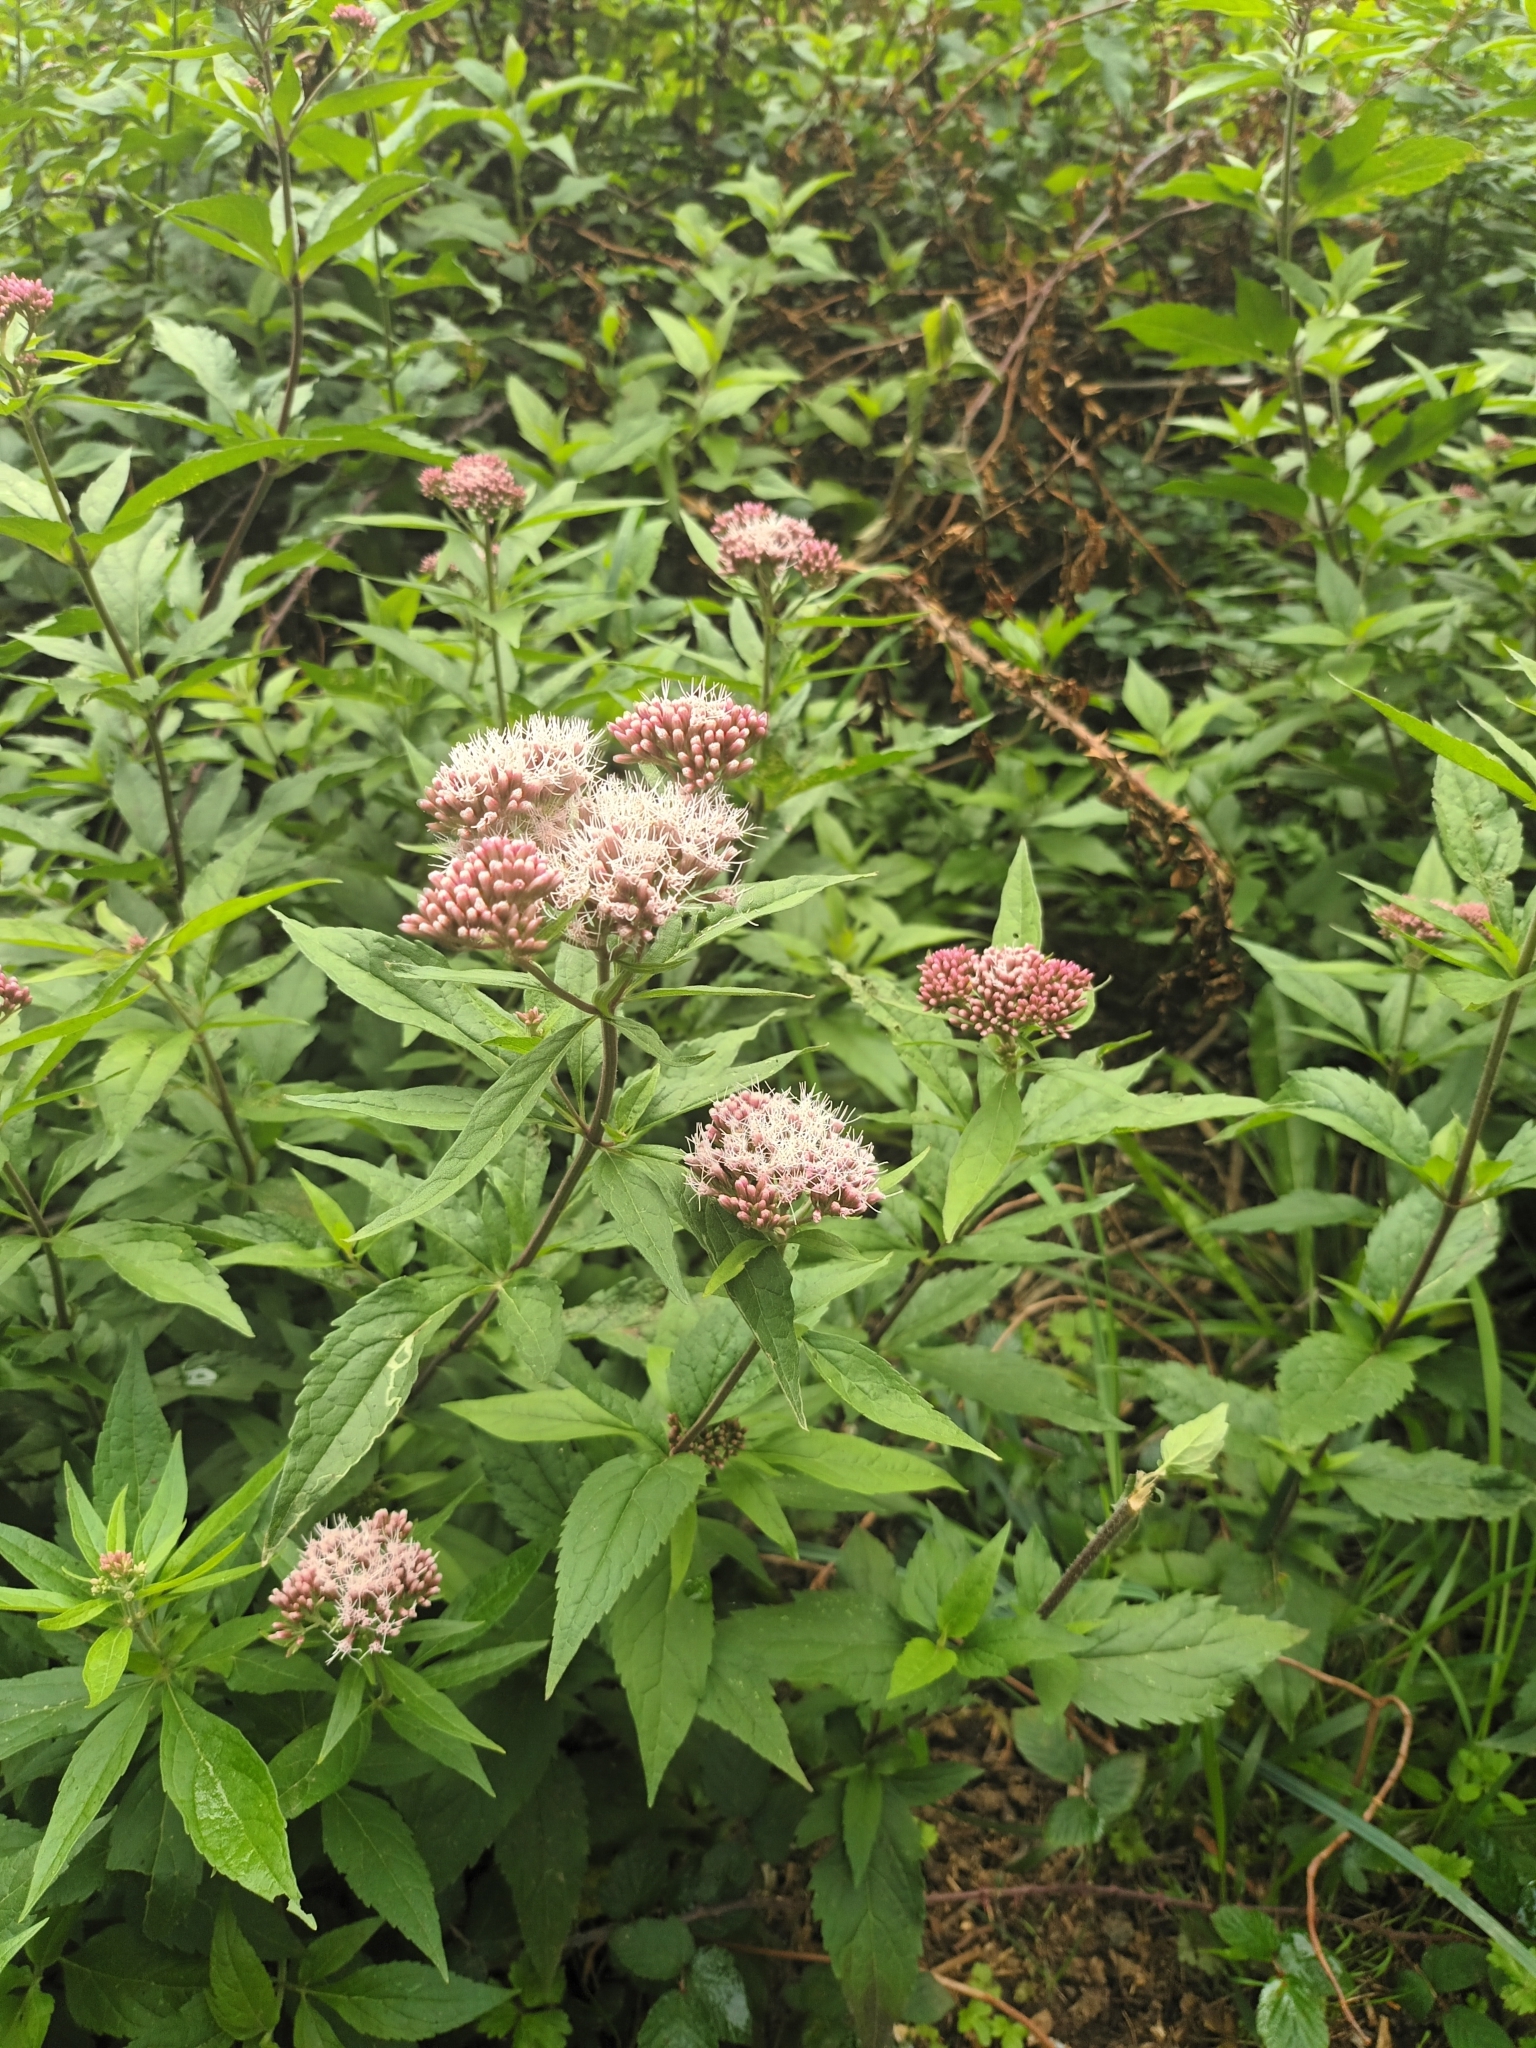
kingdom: Plantae
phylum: Tracheophyta
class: Magnoliopsida
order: Asterales
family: Asteraceae
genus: Eupatorium
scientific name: Eupatorium cannabinum
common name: Hemp-agrimony
